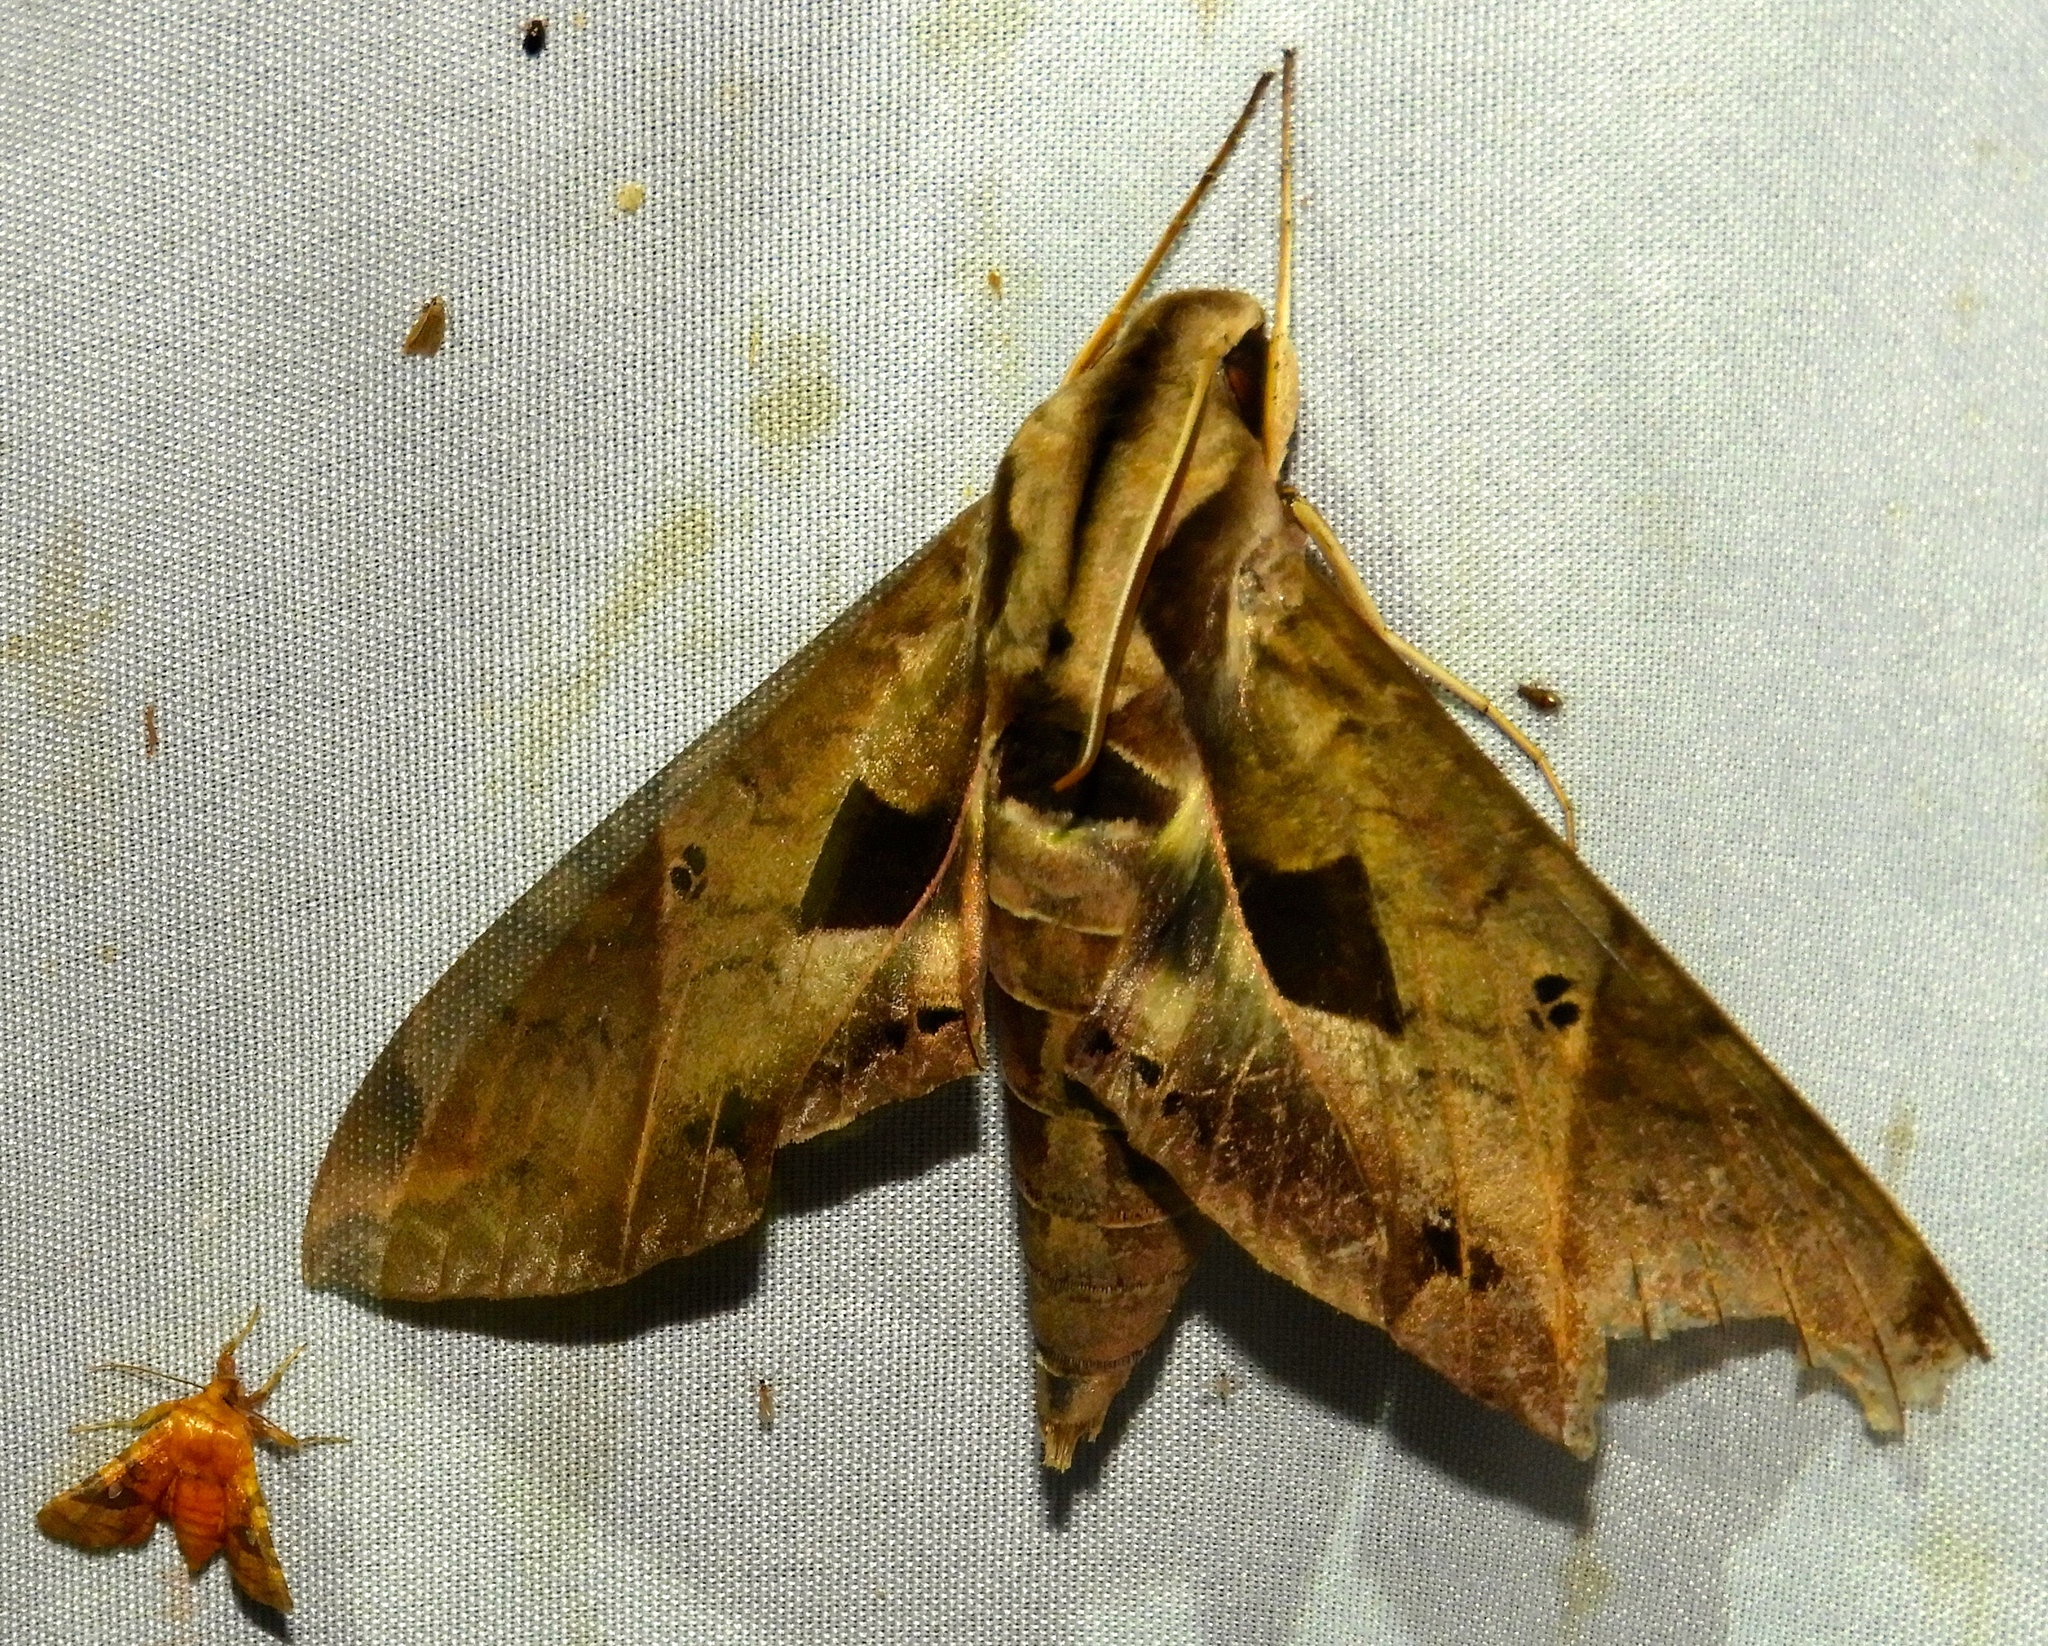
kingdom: Animalia
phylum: Arthropoda
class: Insecta
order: Lepidoptera
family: Sphingidae
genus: Eumorpha
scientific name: Eumorpha satellitia
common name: Satellite sphinx
